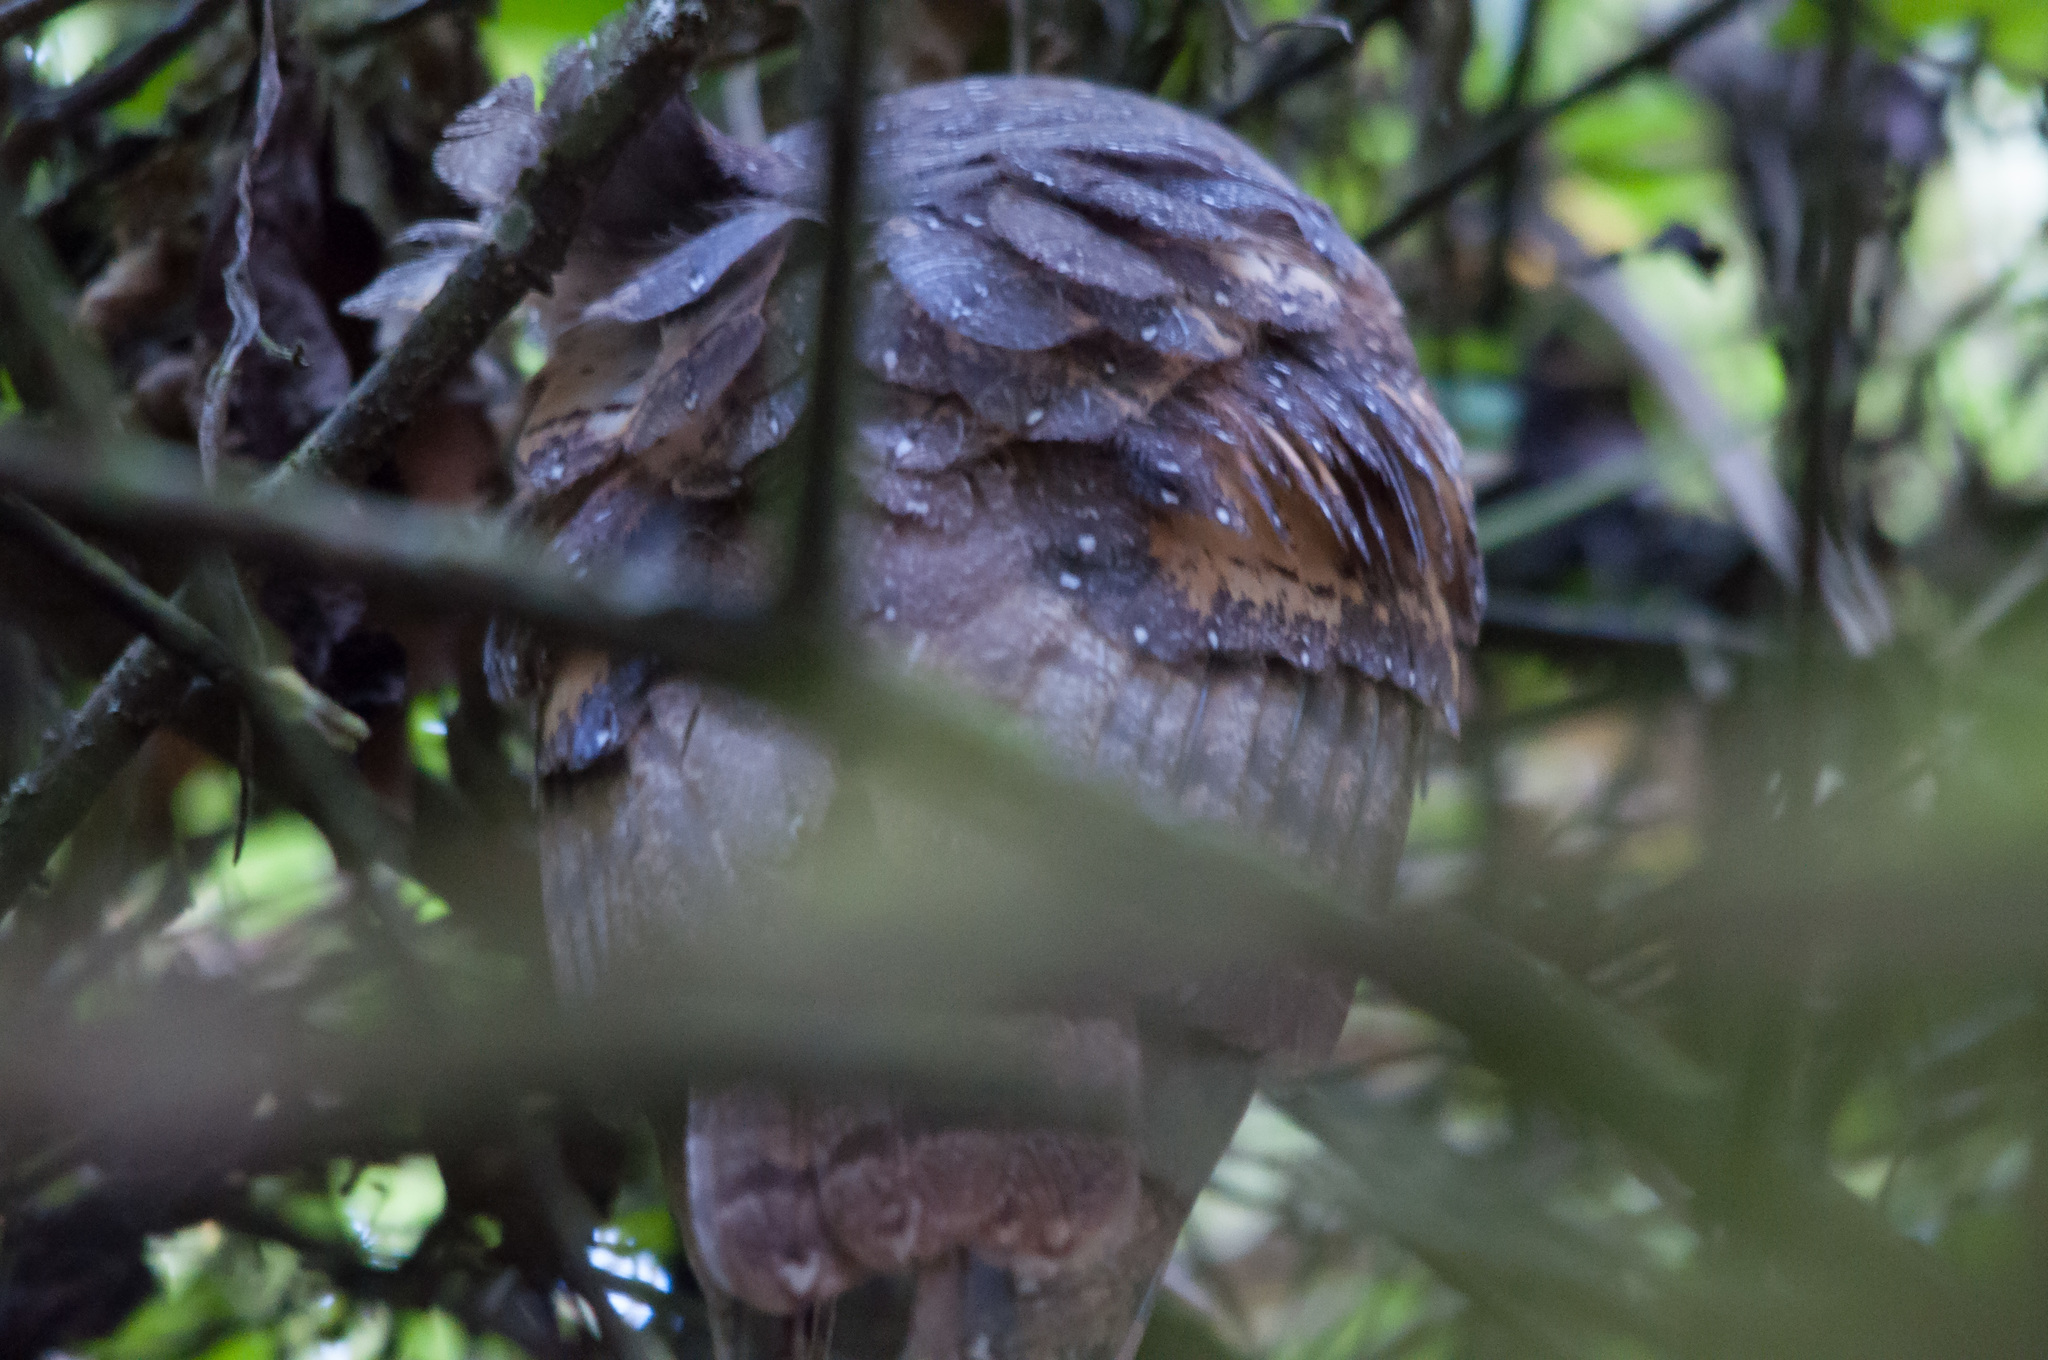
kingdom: Animalia
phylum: Chordata
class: Aves
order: Strigiformes
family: Tytonidae
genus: Tyto
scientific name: Tyto furcata
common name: American barn owl
